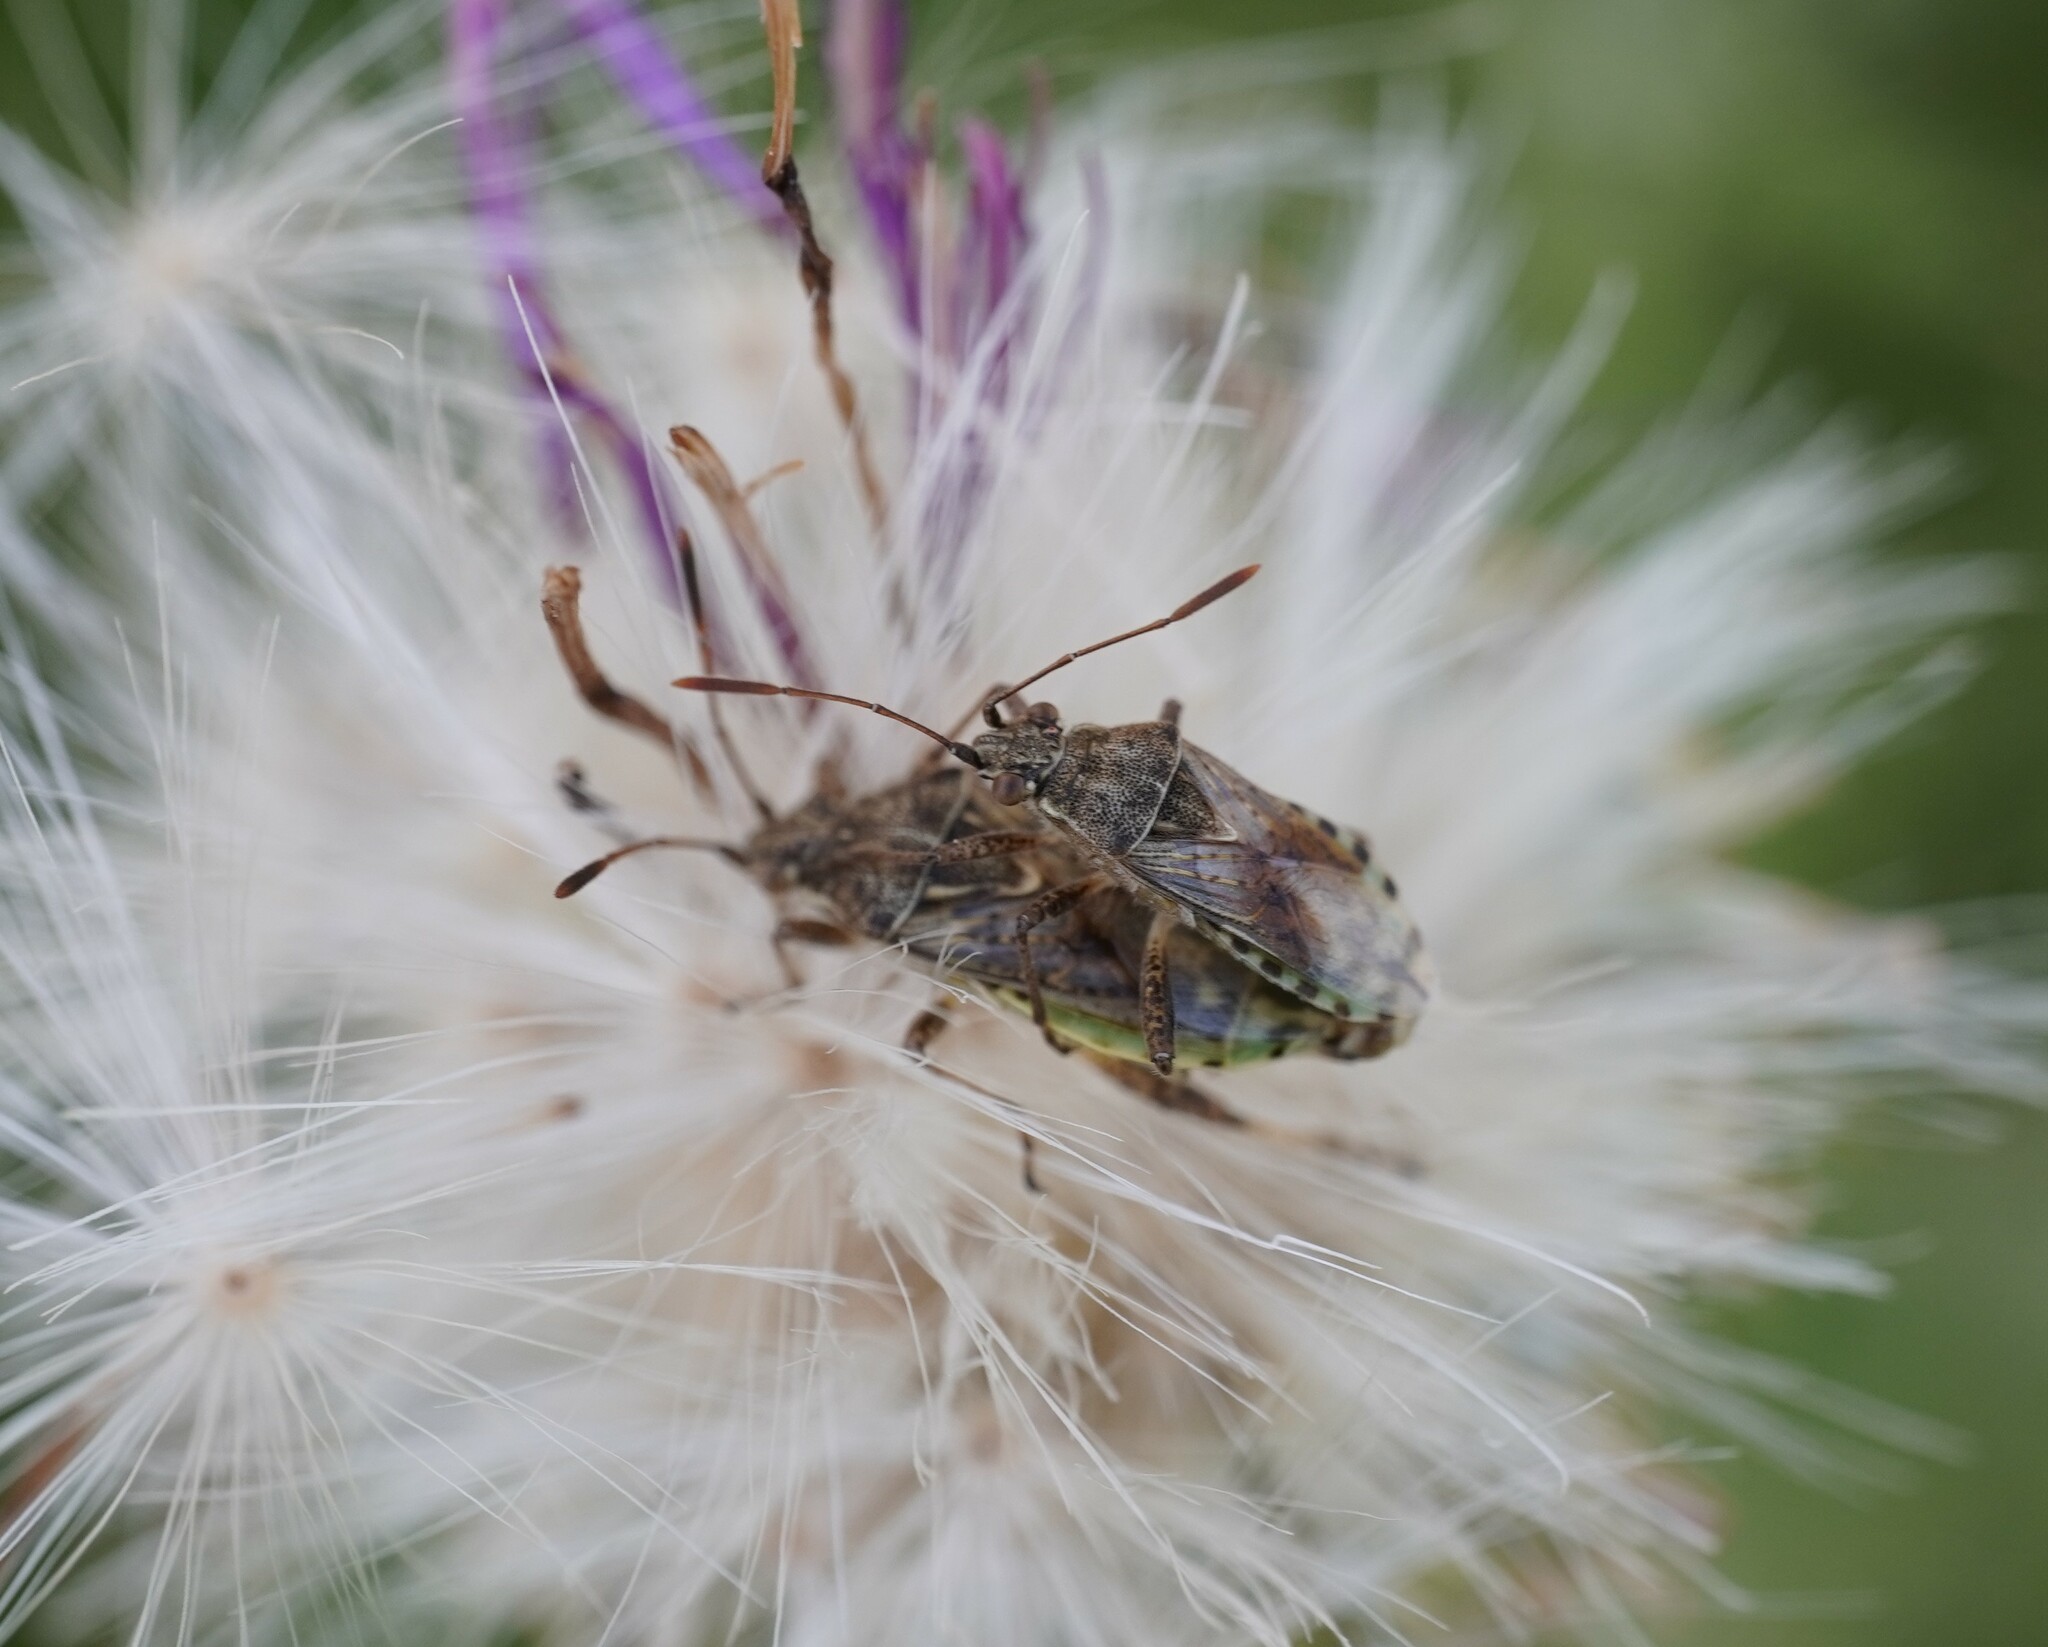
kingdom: Animalia
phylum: Arthropoda
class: Insecta
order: Hemiptera
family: Rhopalidae
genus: Stictopleurus
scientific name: Stictopleurus punctatonervosus
